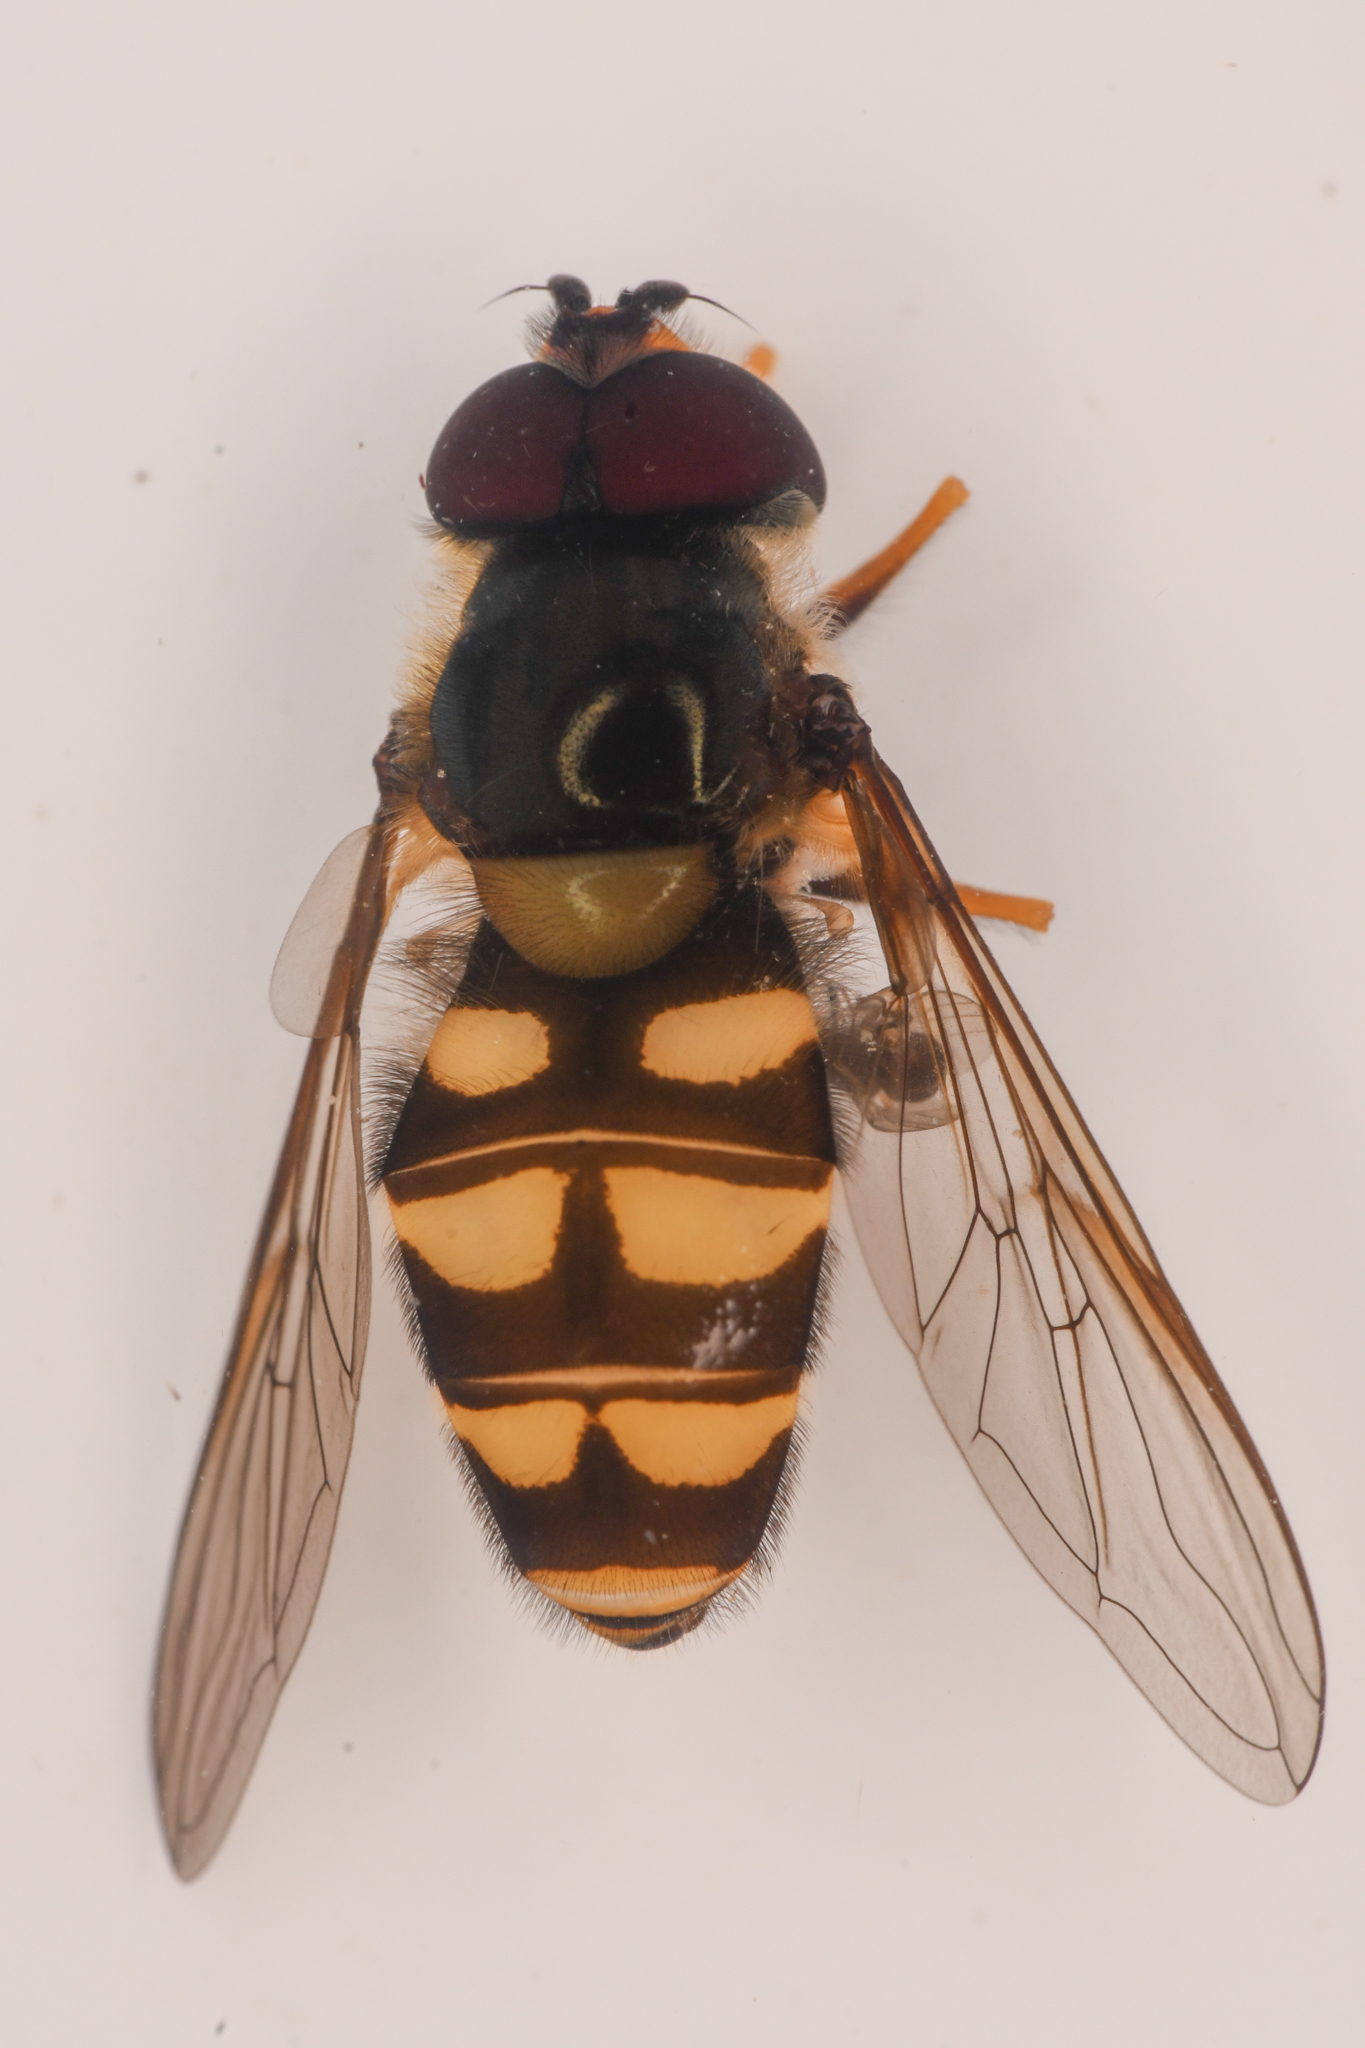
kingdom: Animalia
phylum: Arthropoda
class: Insecta
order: Diptera
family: Syrphidae
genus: Megasyrphus
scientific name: Megasyrphus laxus
